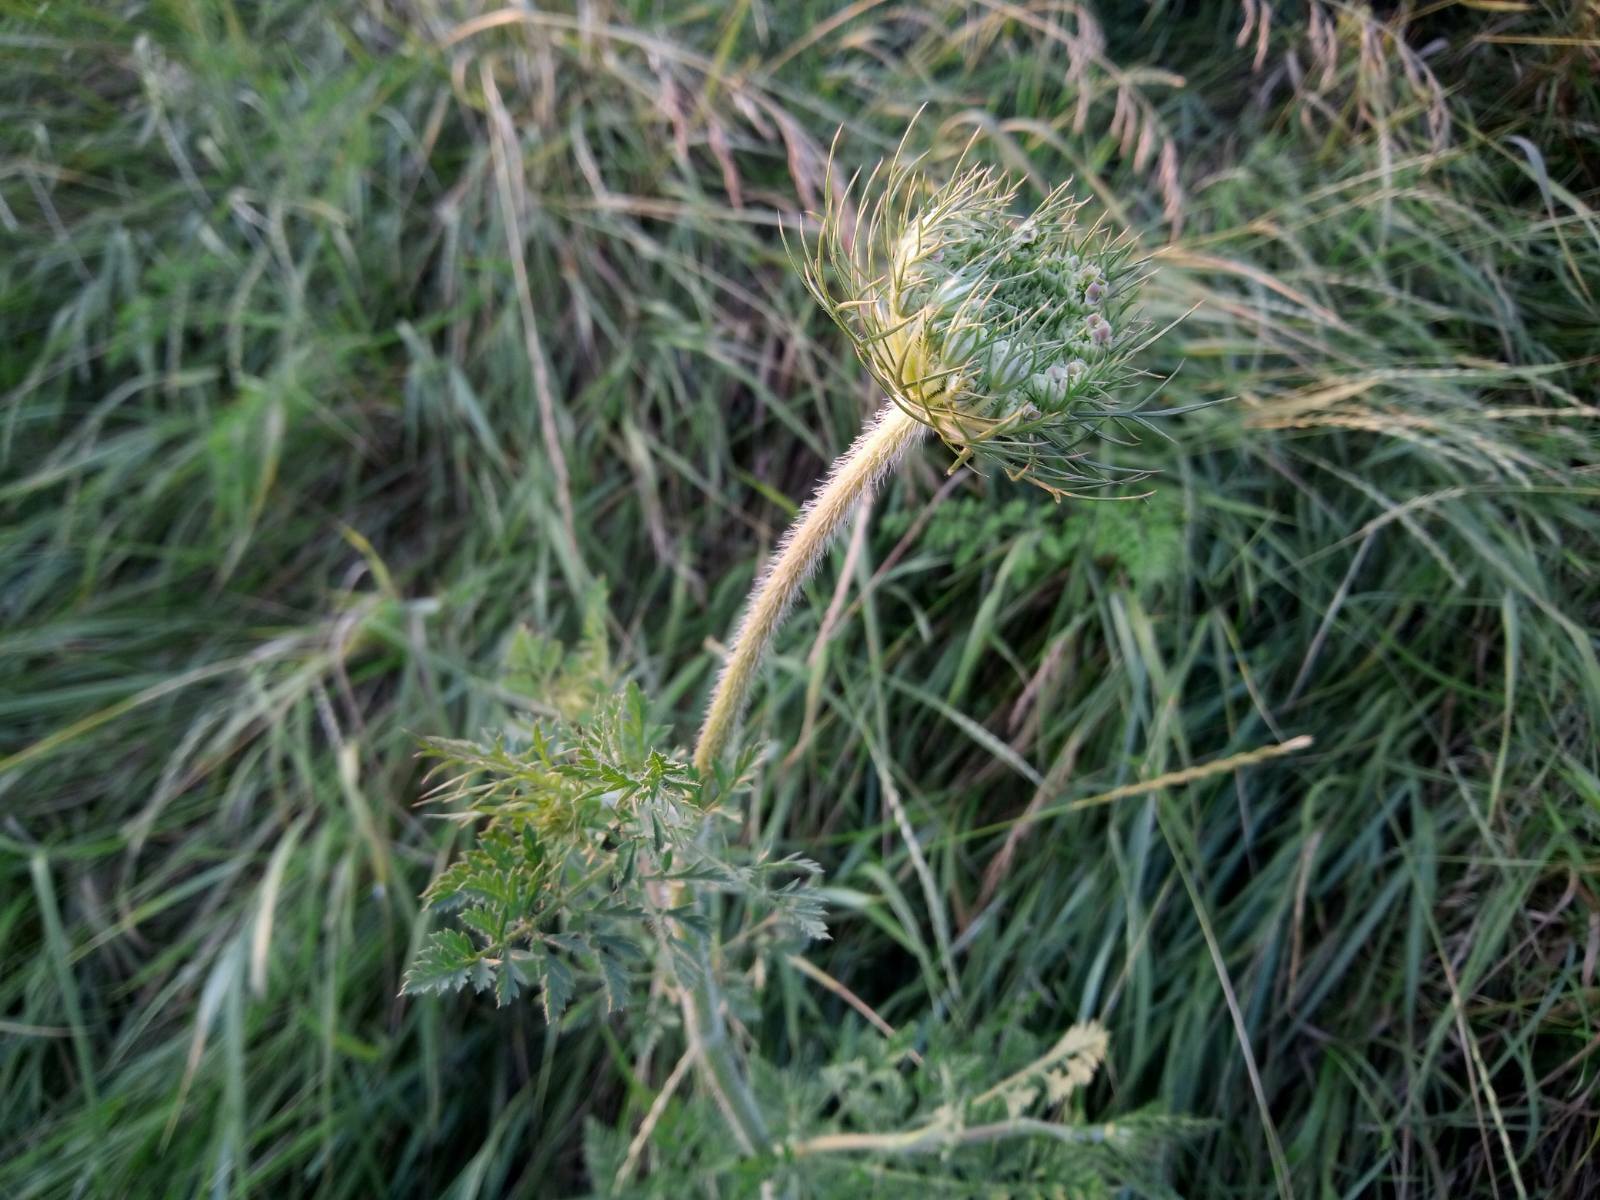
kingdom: Plantae
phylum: Tracheophyta
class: Magnoliopsida
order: Apiales
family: Apiaceae
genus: Daucus
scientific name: Daucus carota
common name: Wild carrot
